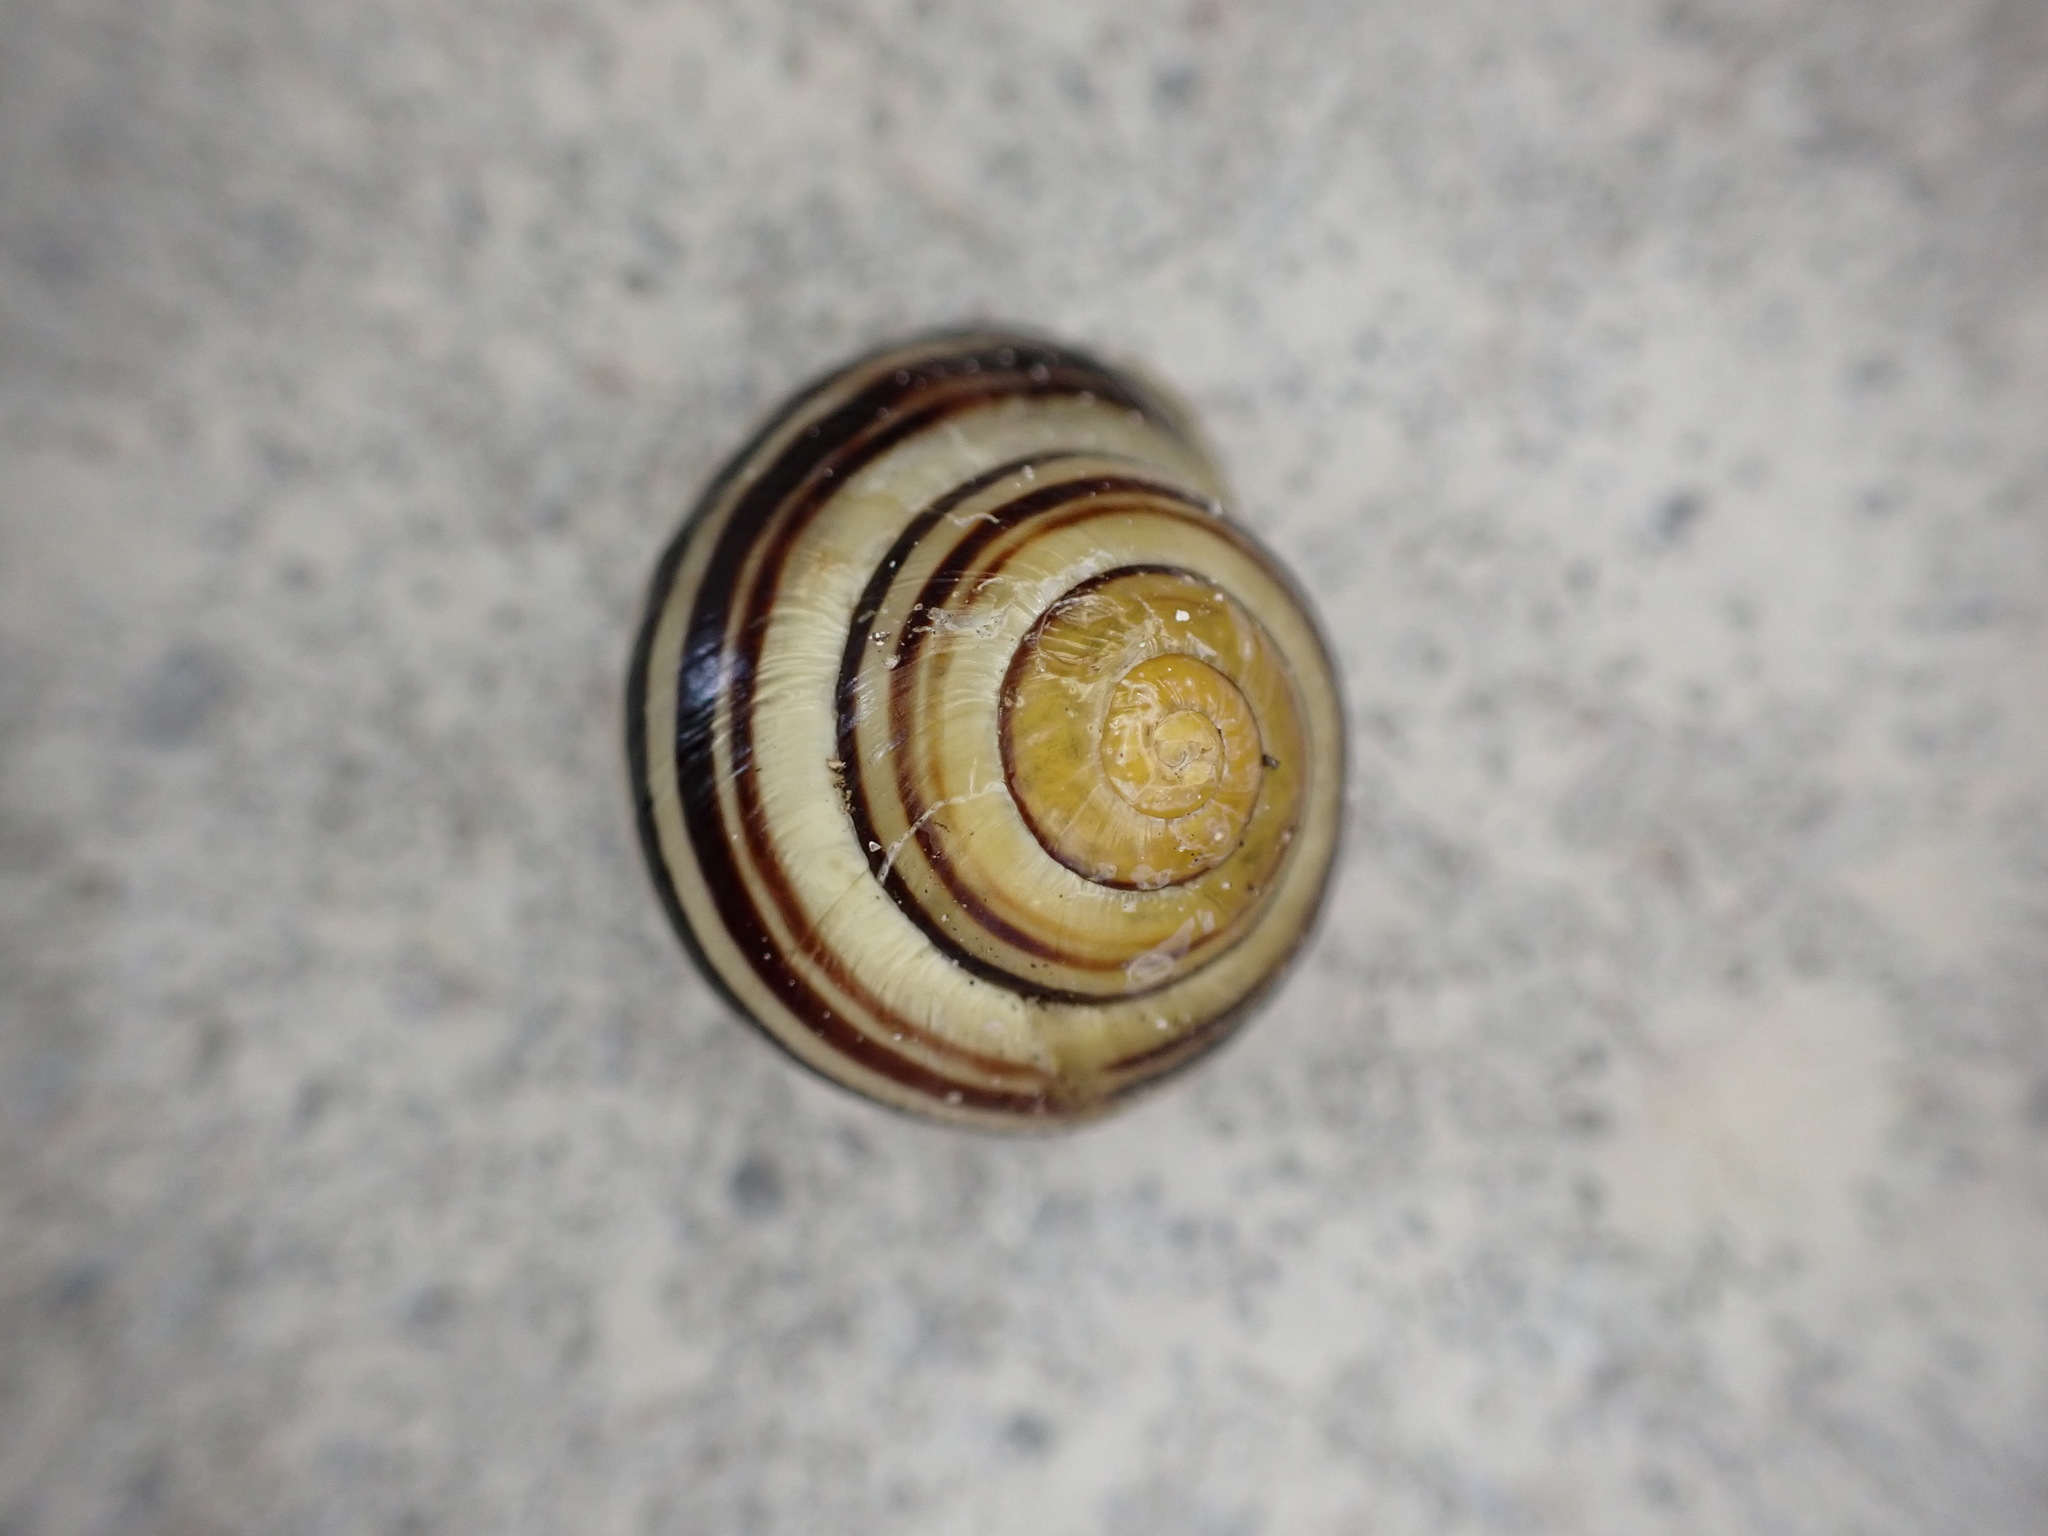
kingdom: Animalia
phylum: Mollusca
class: Gastropoda
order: Stylommatophora
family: Helicidae
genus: Cepaea
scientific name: Cepaea
